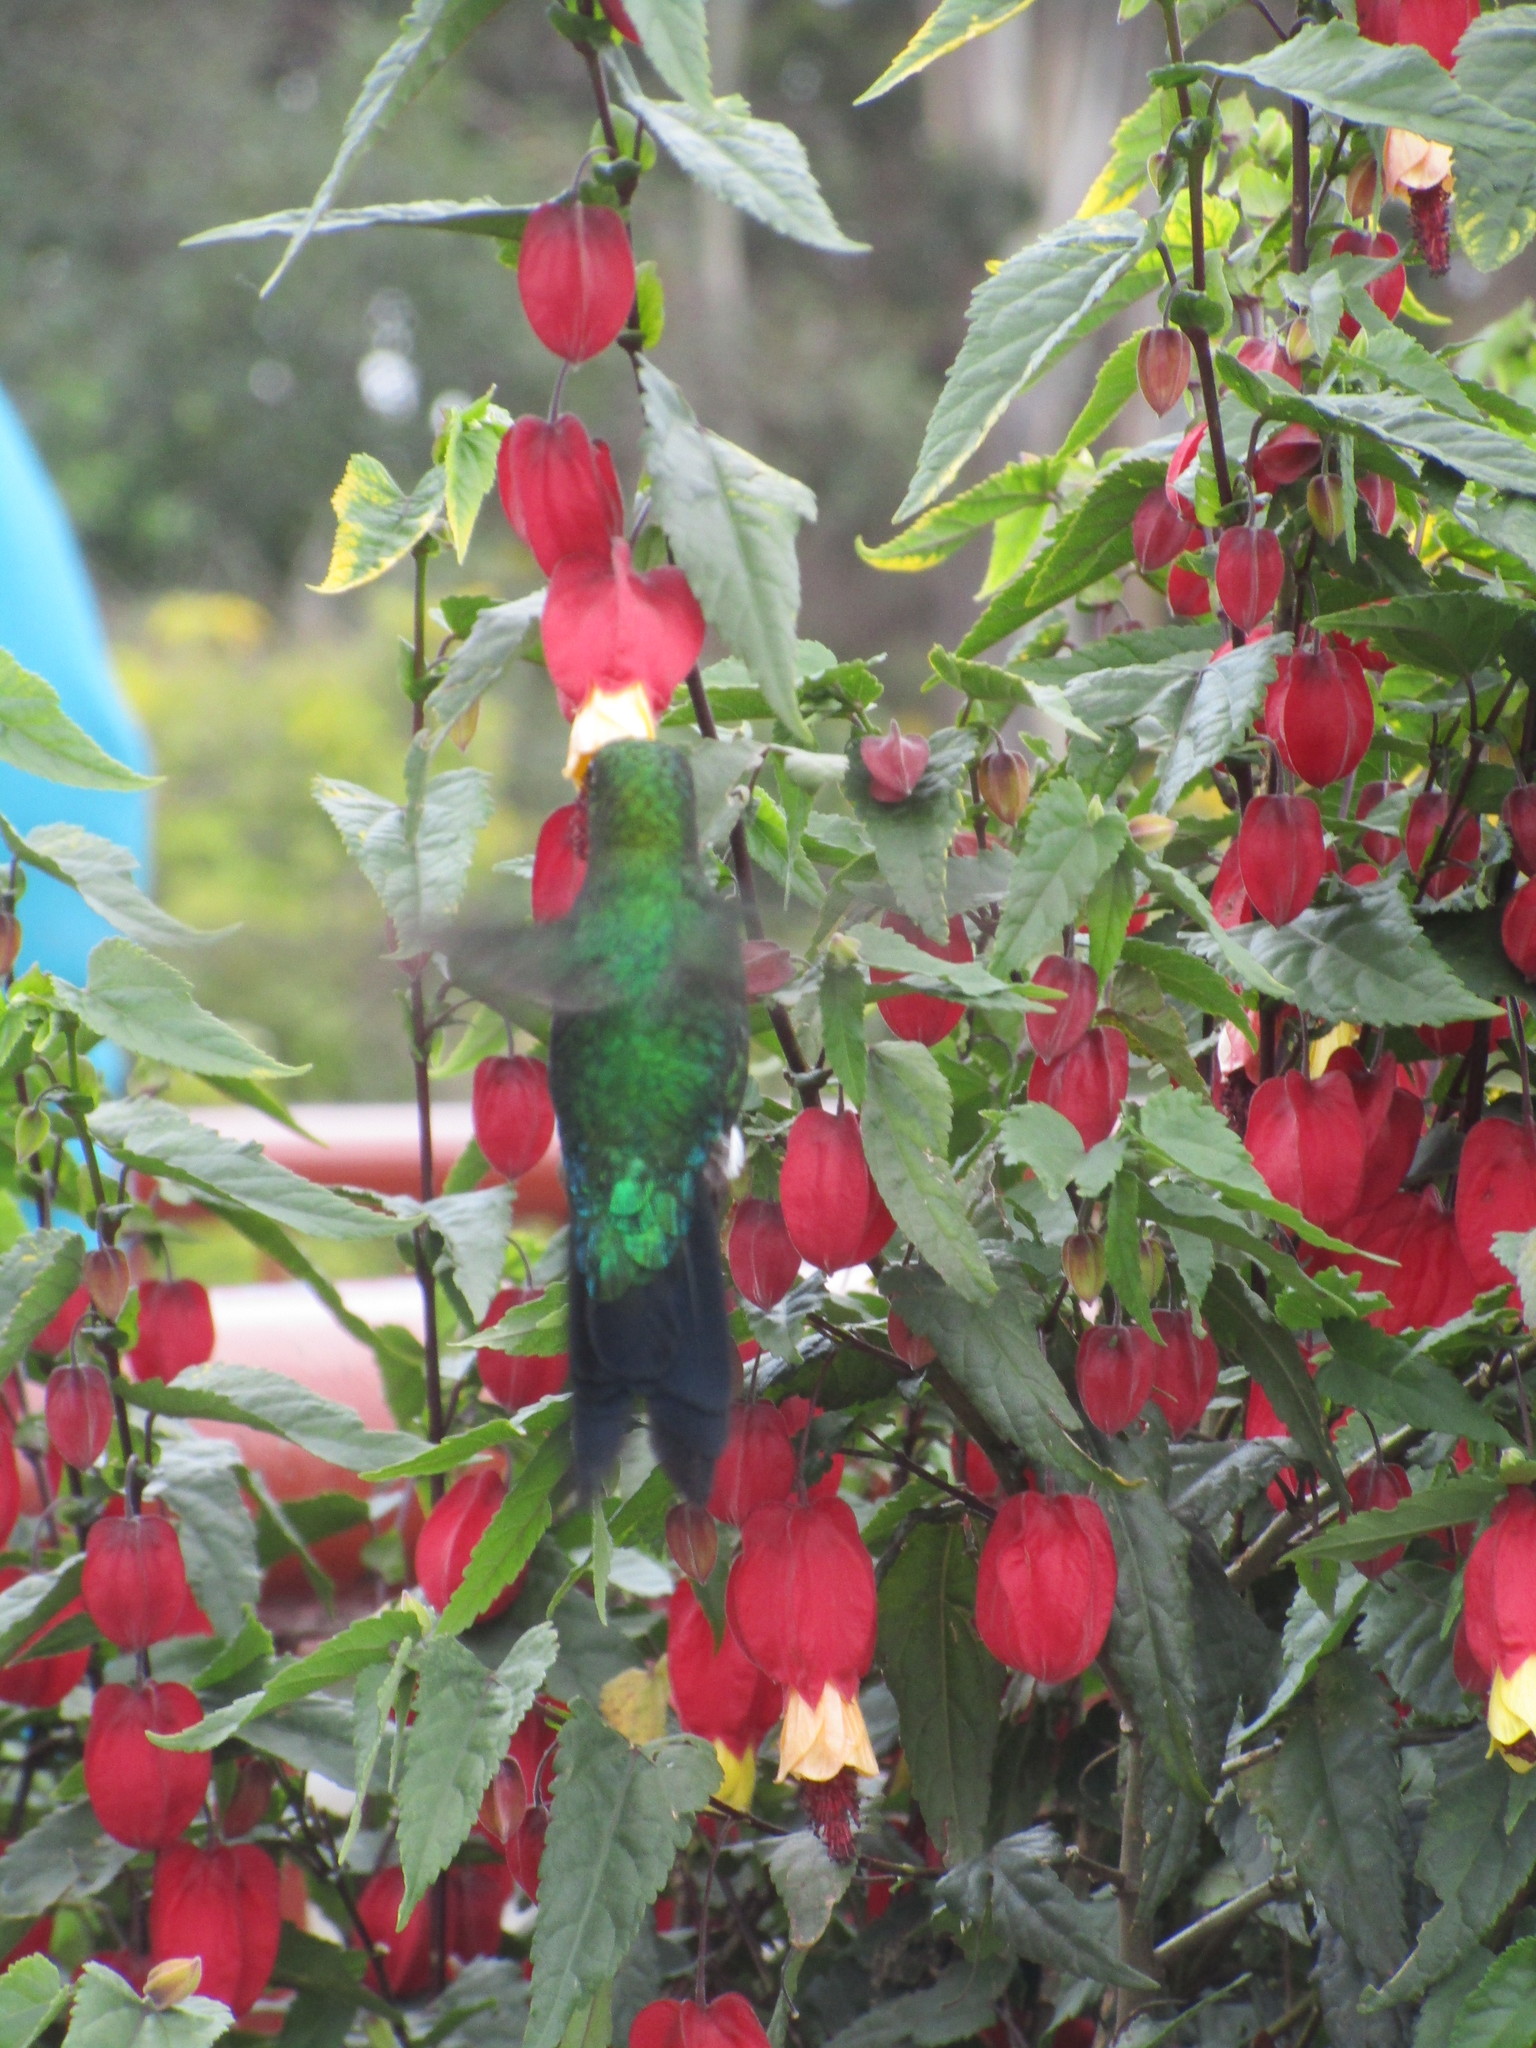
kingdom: Animalia
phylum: Chordata
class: Aves
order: Apodiformes
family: Trochilidae
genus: Eriocnemis
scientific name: Eriocnemis vestita
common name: Glowing puffleg
